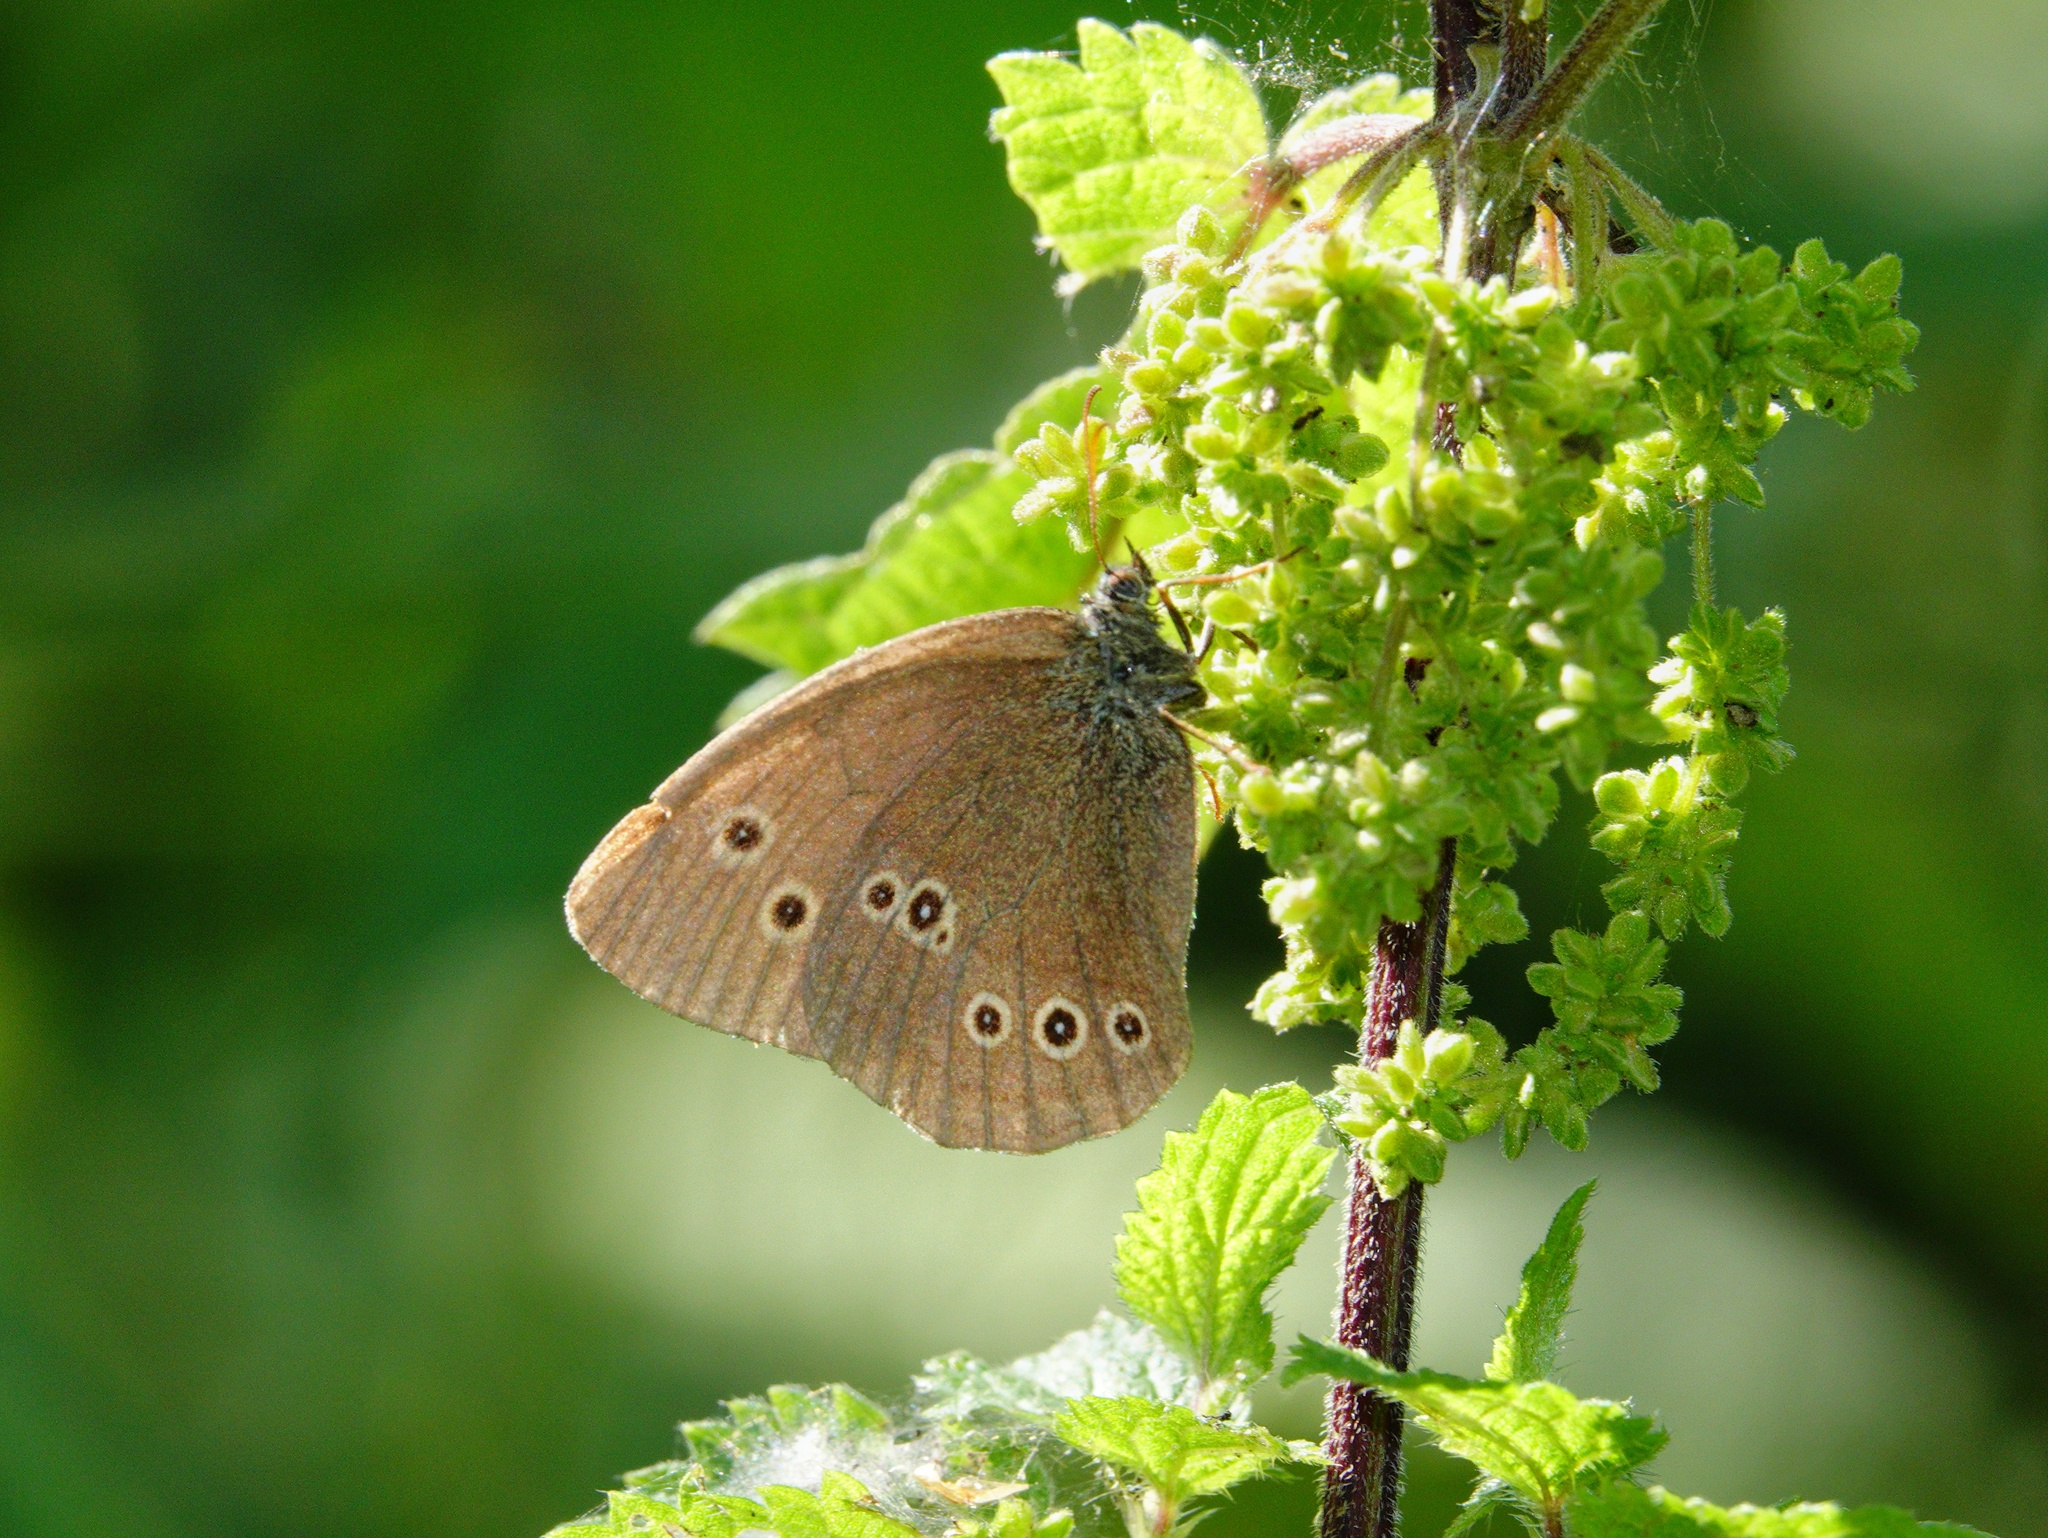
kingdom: Animalia
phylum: Arthropoda
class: Insecta
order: Lepidoptera
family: Nymphalidae
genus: Aphantopus
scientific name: Aphantopus hyperantus
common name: Ringlet
